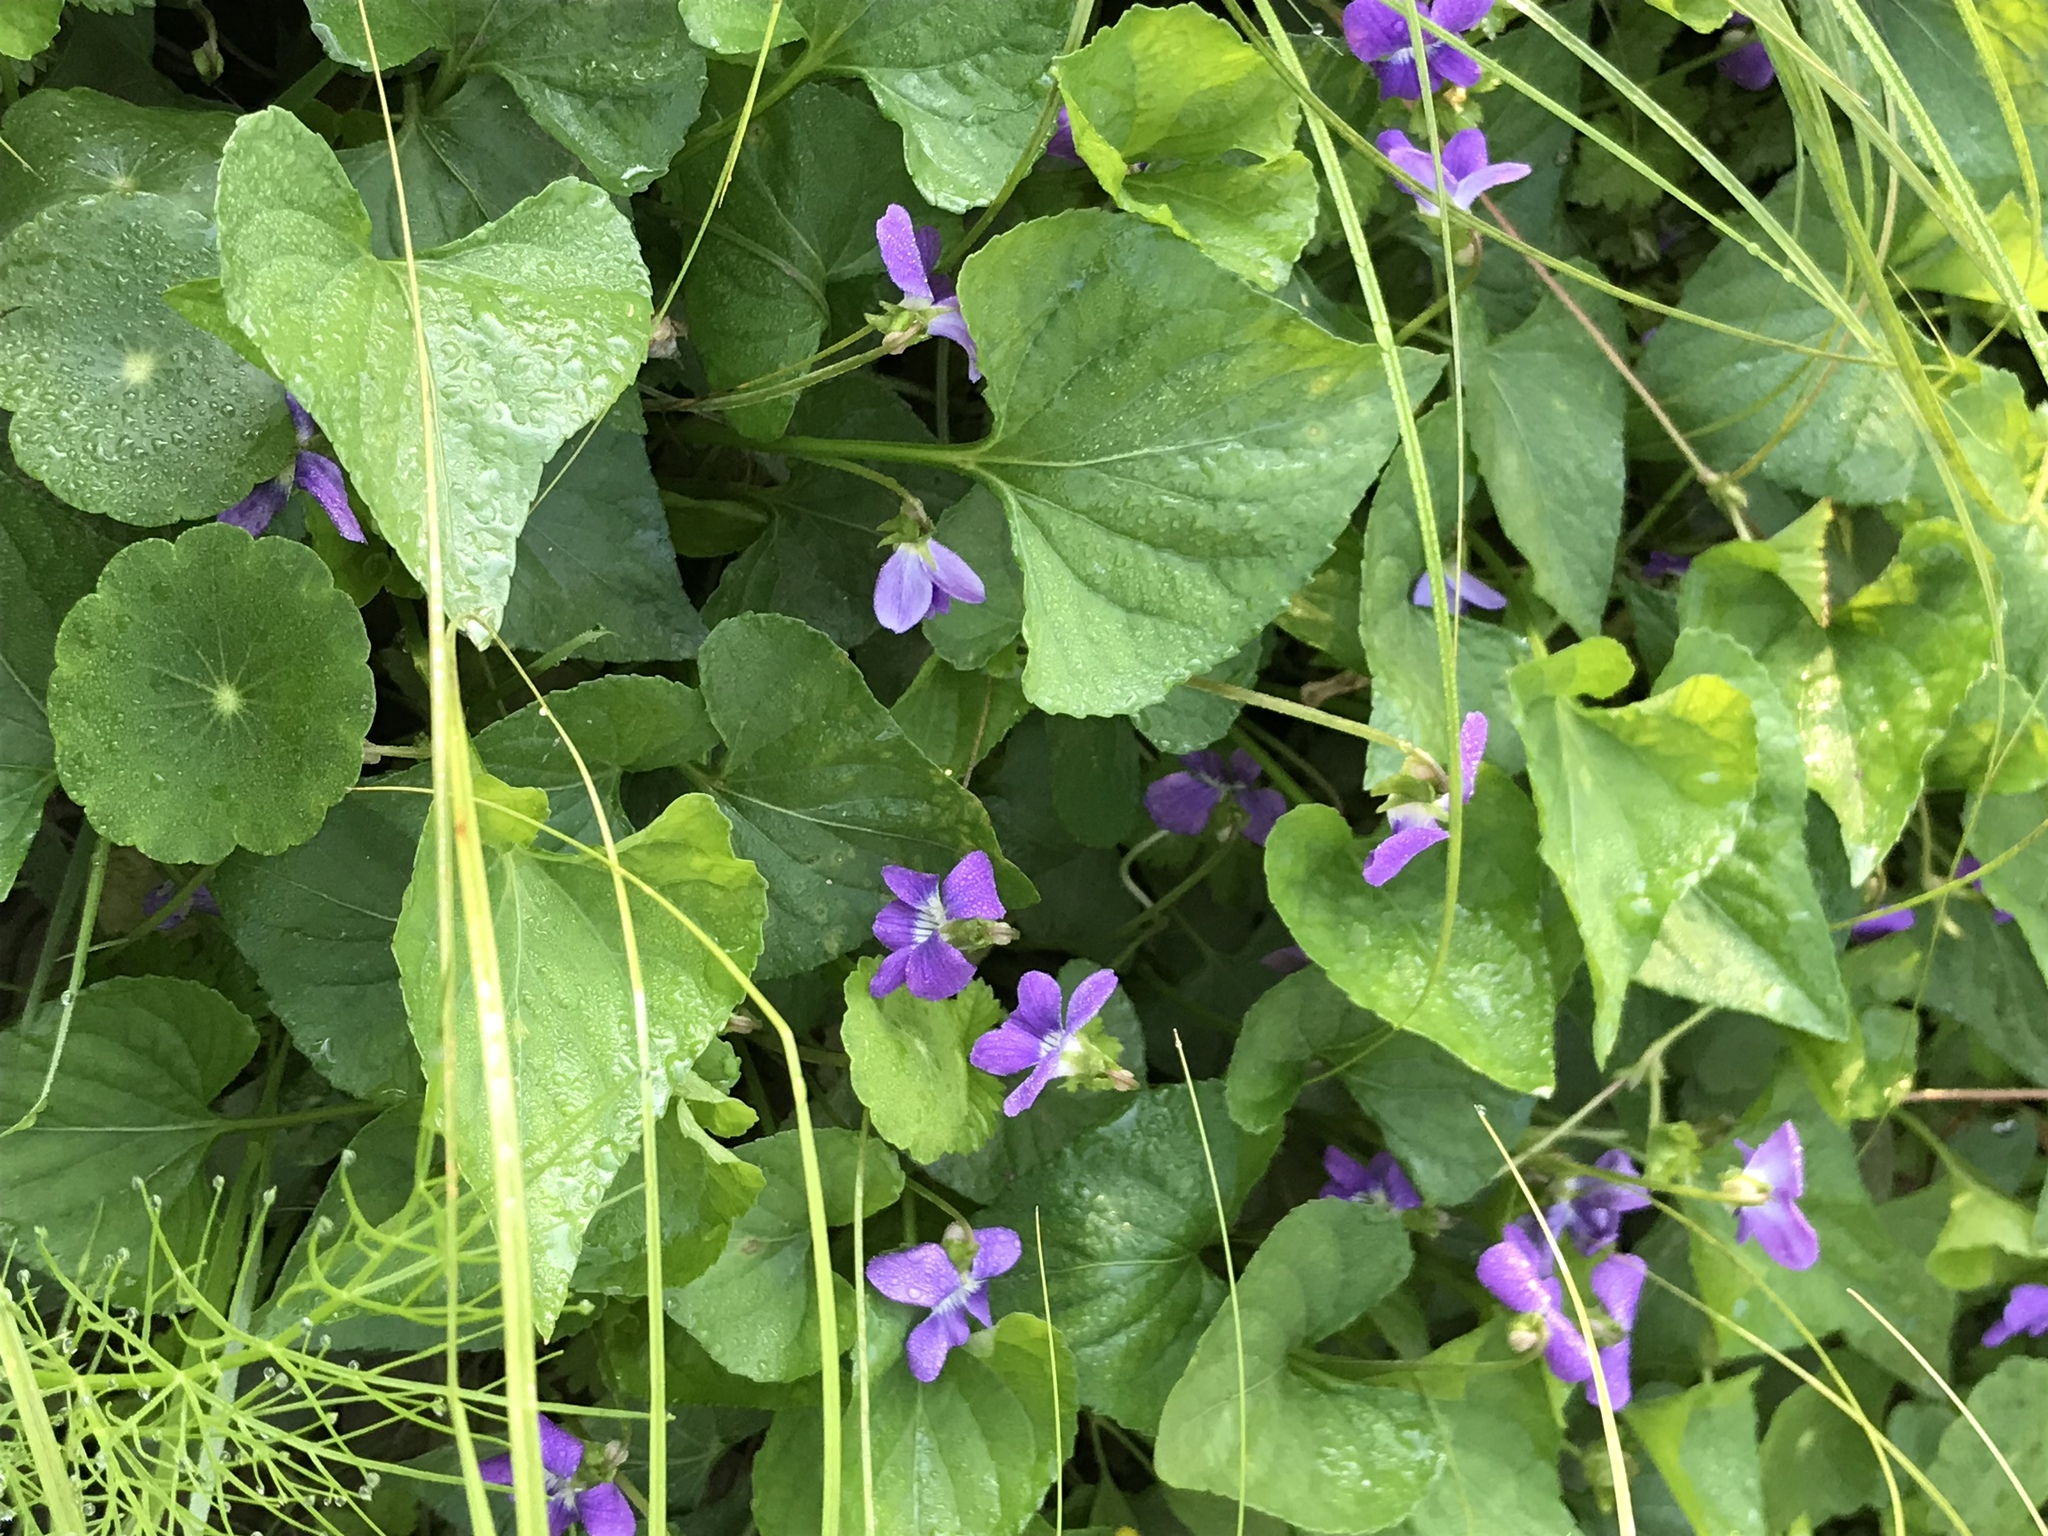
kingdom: Plantae
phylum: Tracheophyta
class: Magnoliopsida
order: Malpighiales
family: Violaceae
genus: Viola
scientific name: Viola sororia
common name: Dooryard violet
